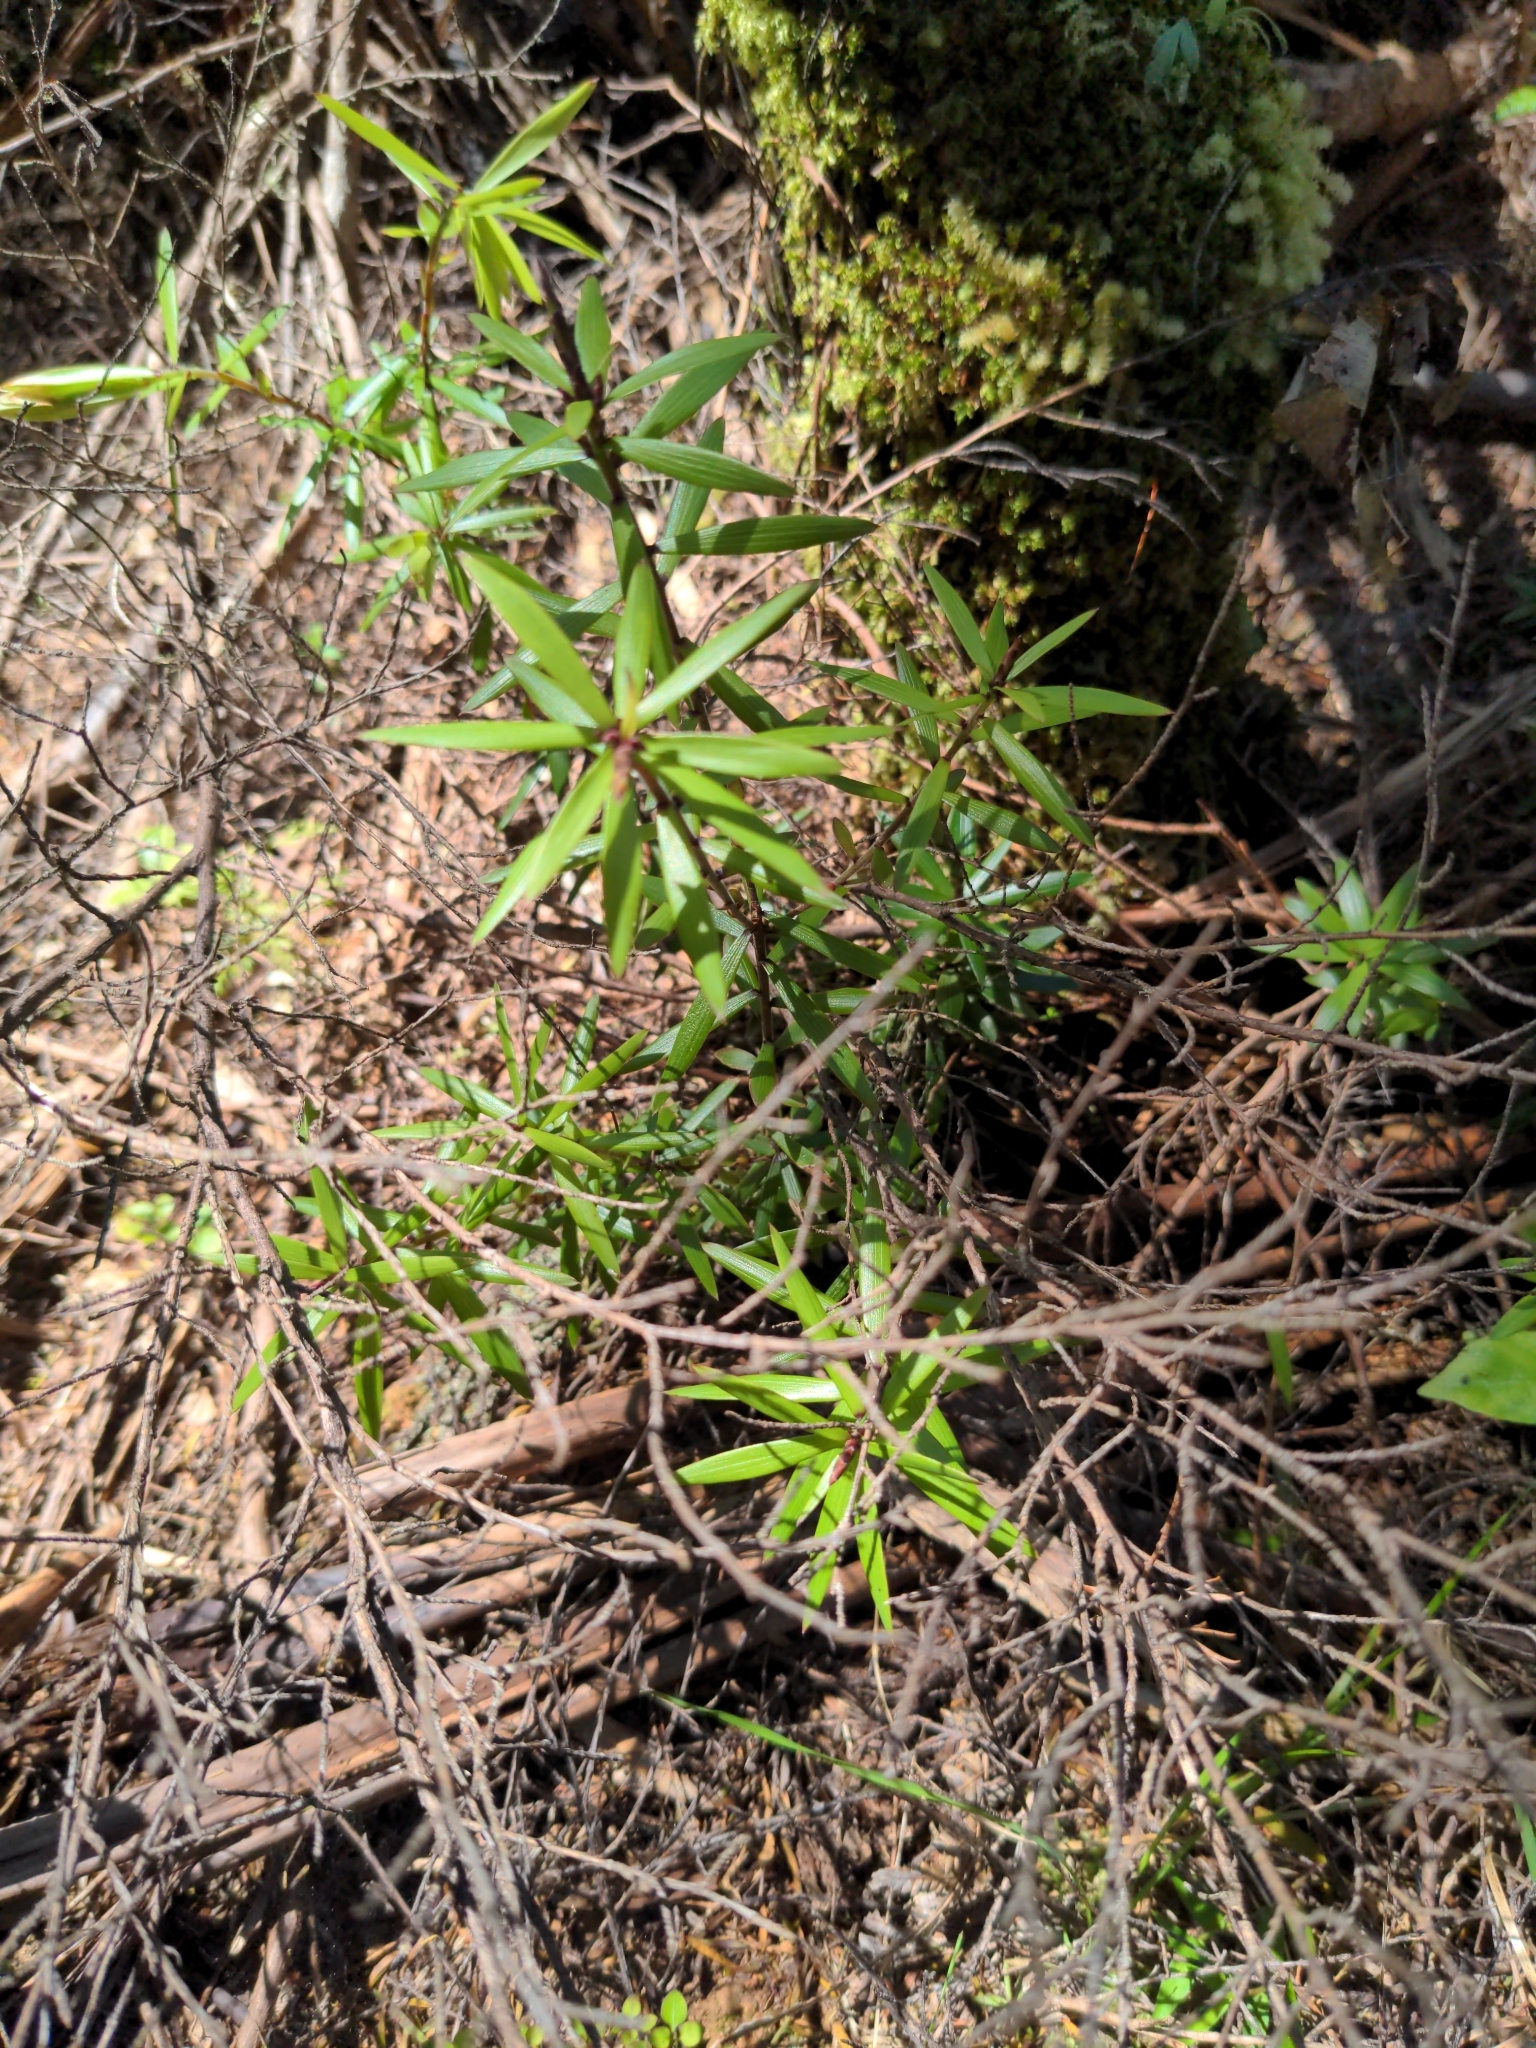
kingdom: Plantae
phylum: Tracheophyta
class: Magnoliopsida
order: Ericales
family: Ericaceae
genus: Leucopogon
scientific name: Leucopogon fasciculatus
